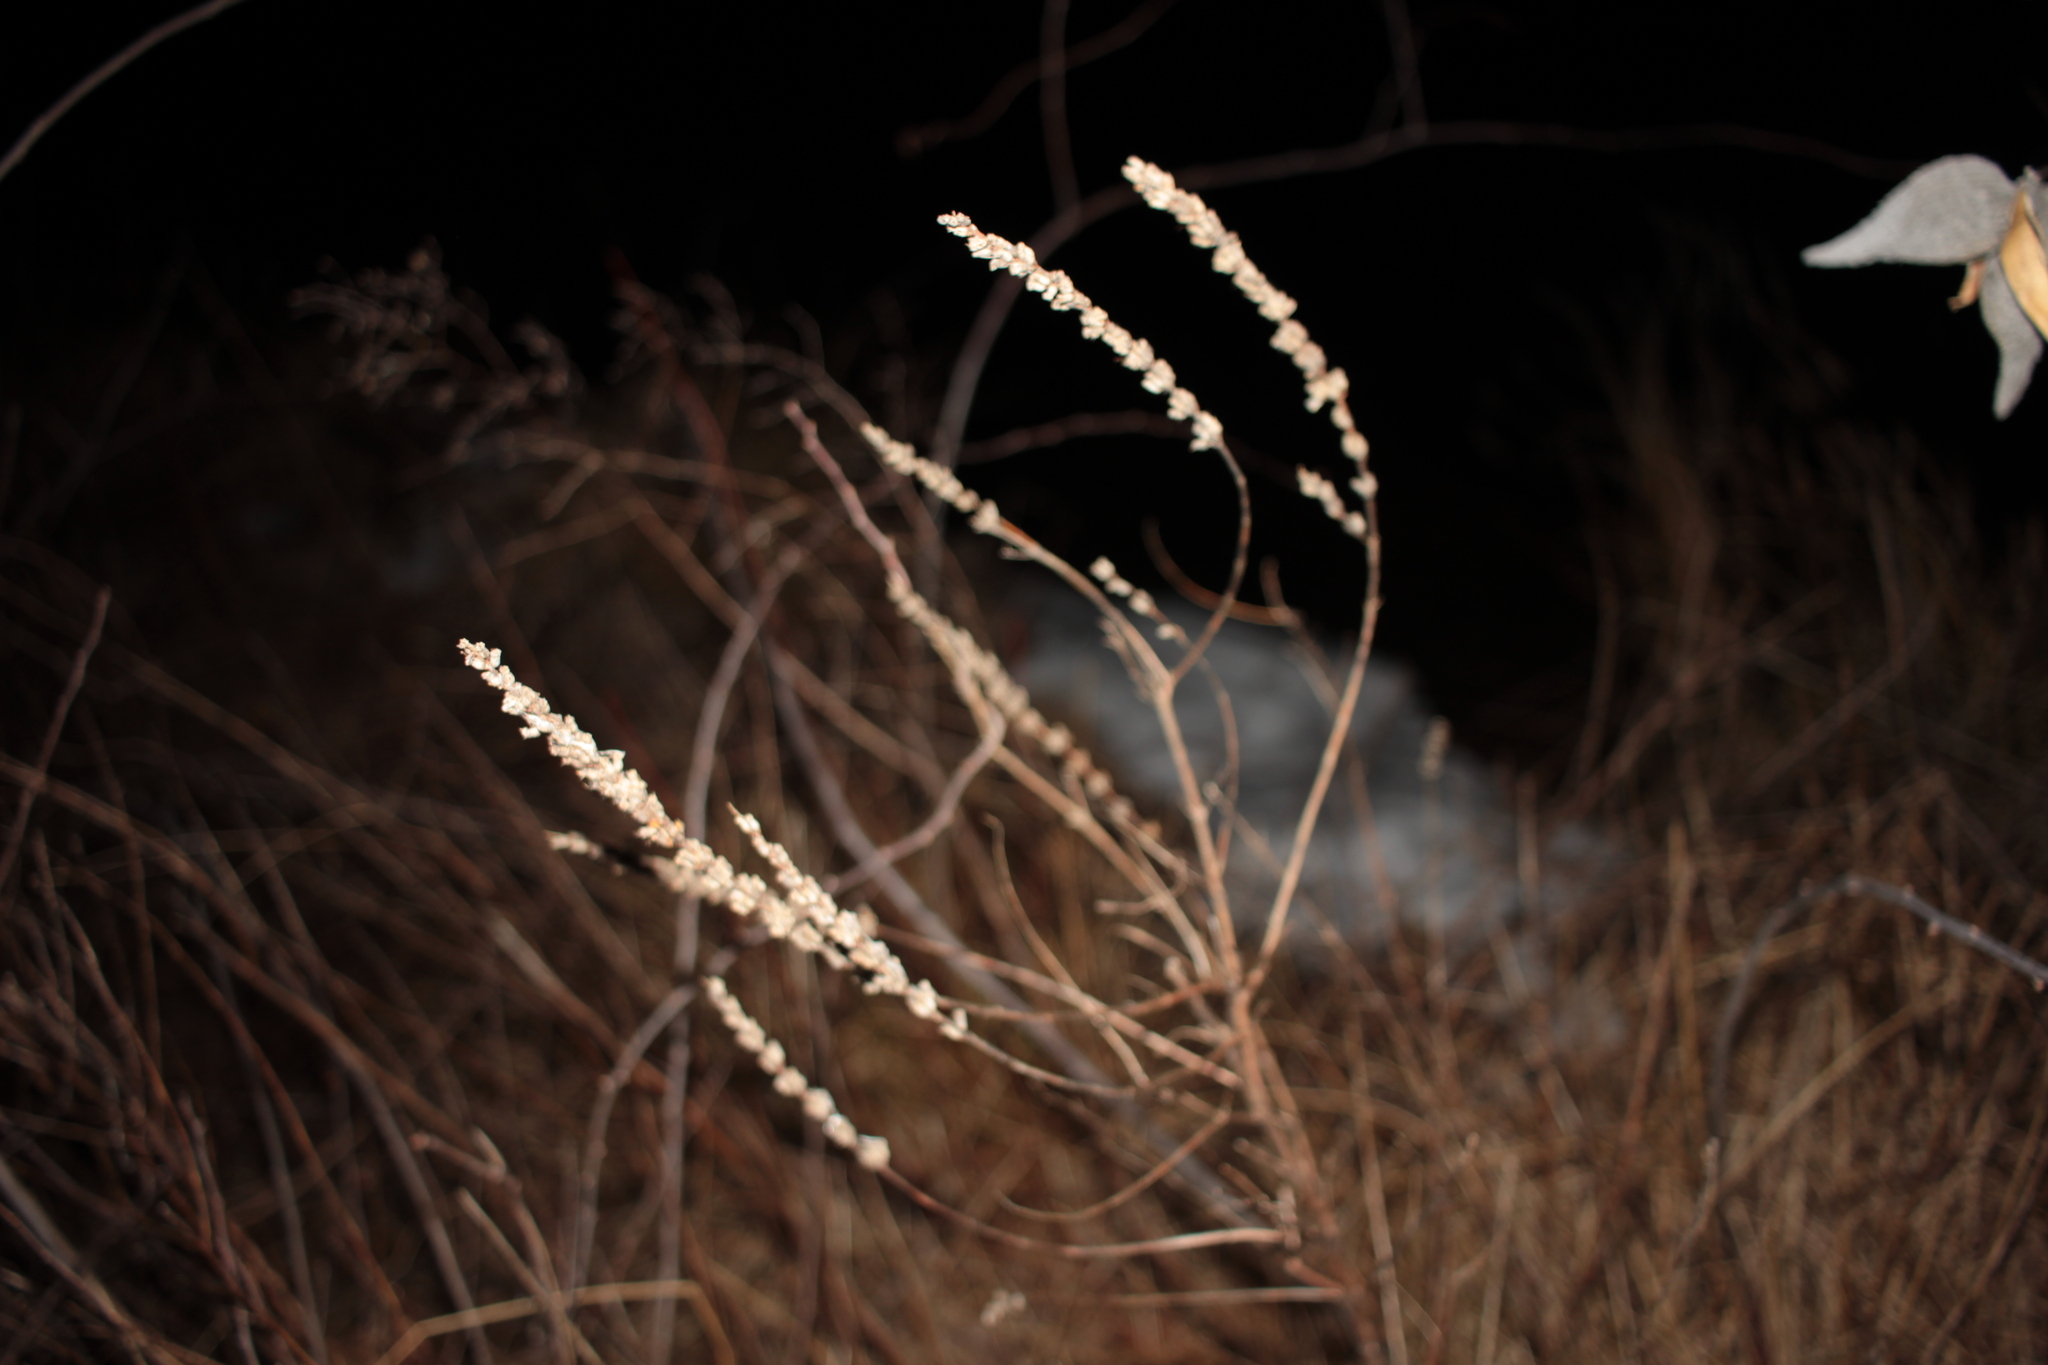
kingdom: Plantae
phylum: Tracheophyta
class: Magnoliopsida
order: Myrtales
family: Lythraceae
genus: Lythrum
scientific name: Lythrum salicaria
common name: Purple loosestrife
